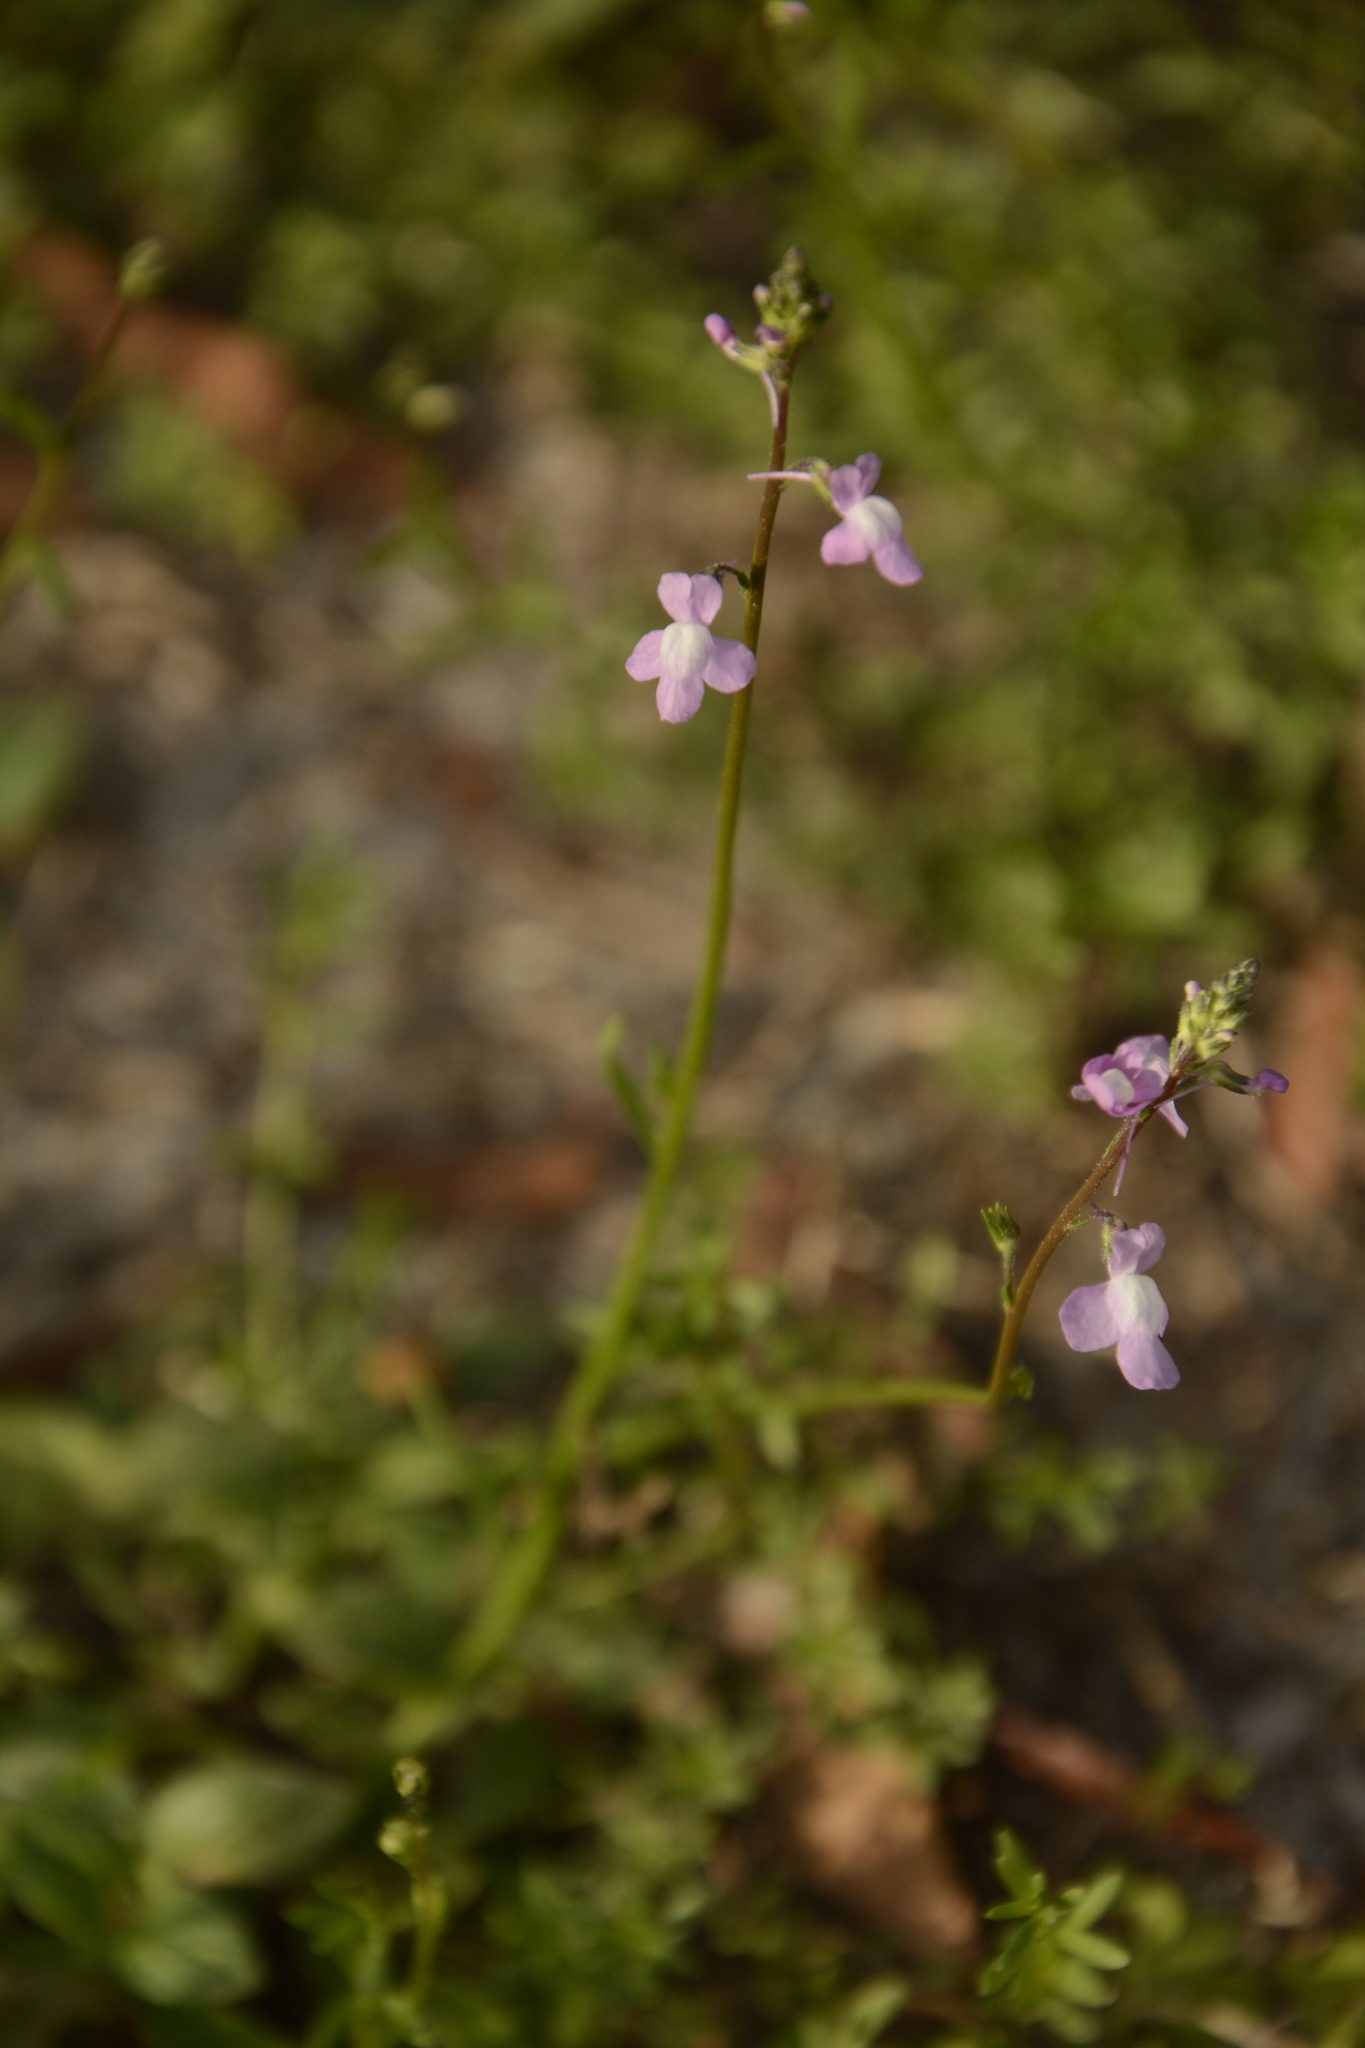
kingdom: Plantae
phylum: Tracheophyta
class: Magnoliopsida
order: Lamiales
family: Plantaginaceae
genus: Nuttallanthus
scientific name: Nuttallanthus canadensis
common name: Blue toadflax
